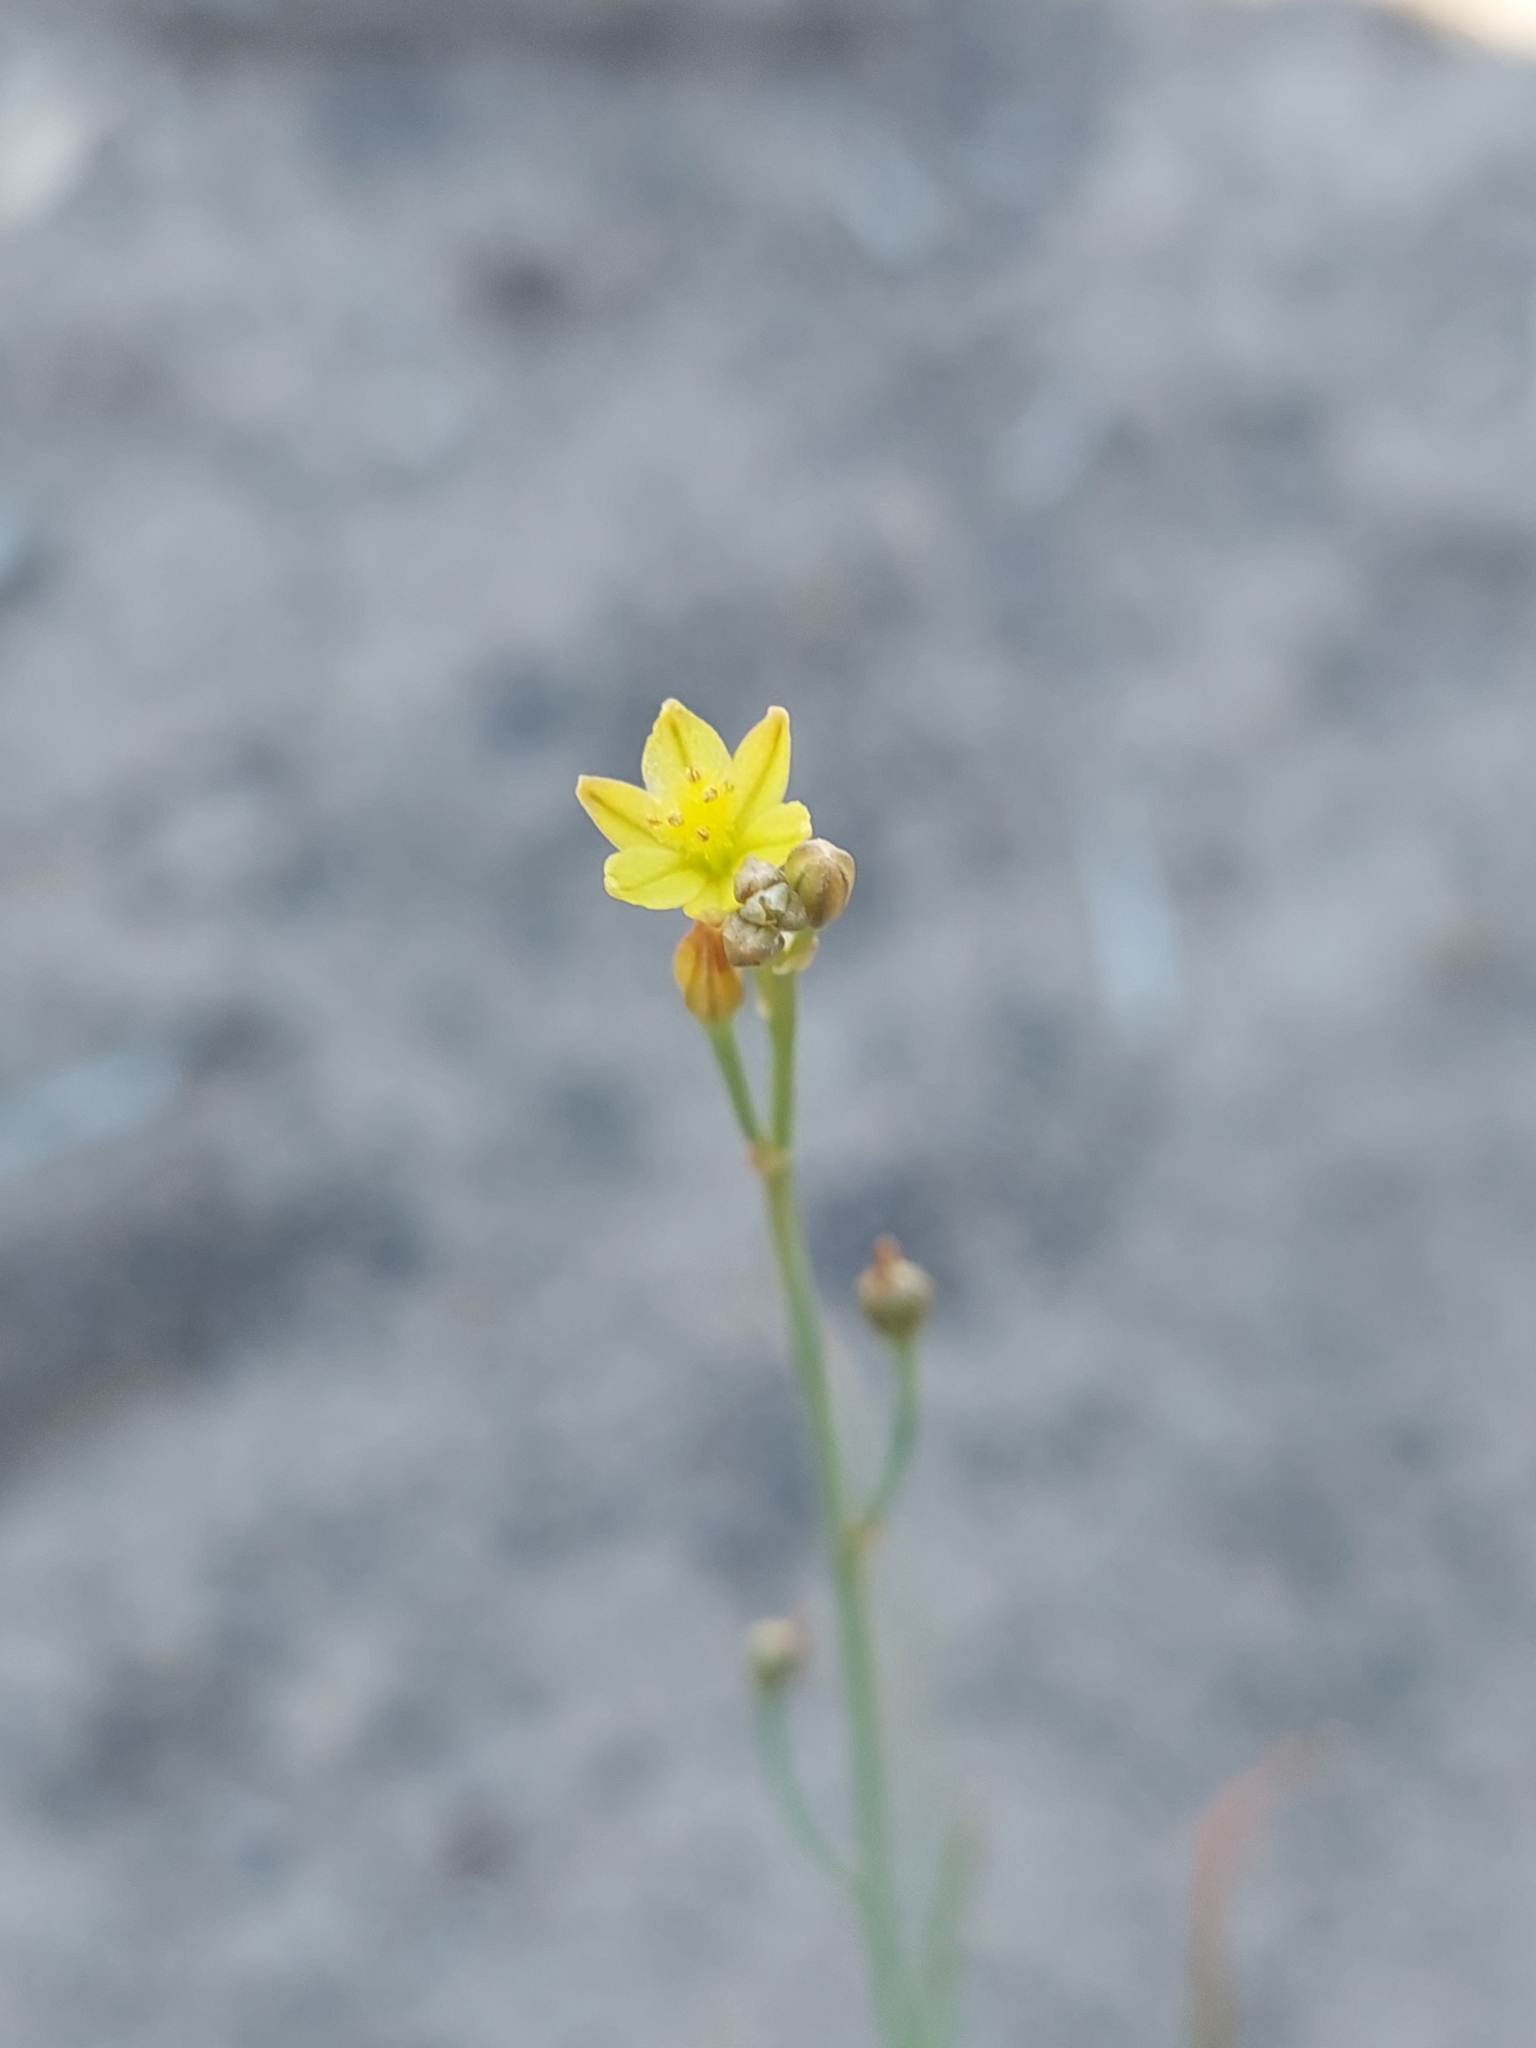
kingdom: Plantae
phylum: Tracheophyta
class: Liliopsida
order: Asparagales
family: Asphodelaceae
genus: Bulbine
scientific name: Bulbine semibarbata
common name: Leek lily
